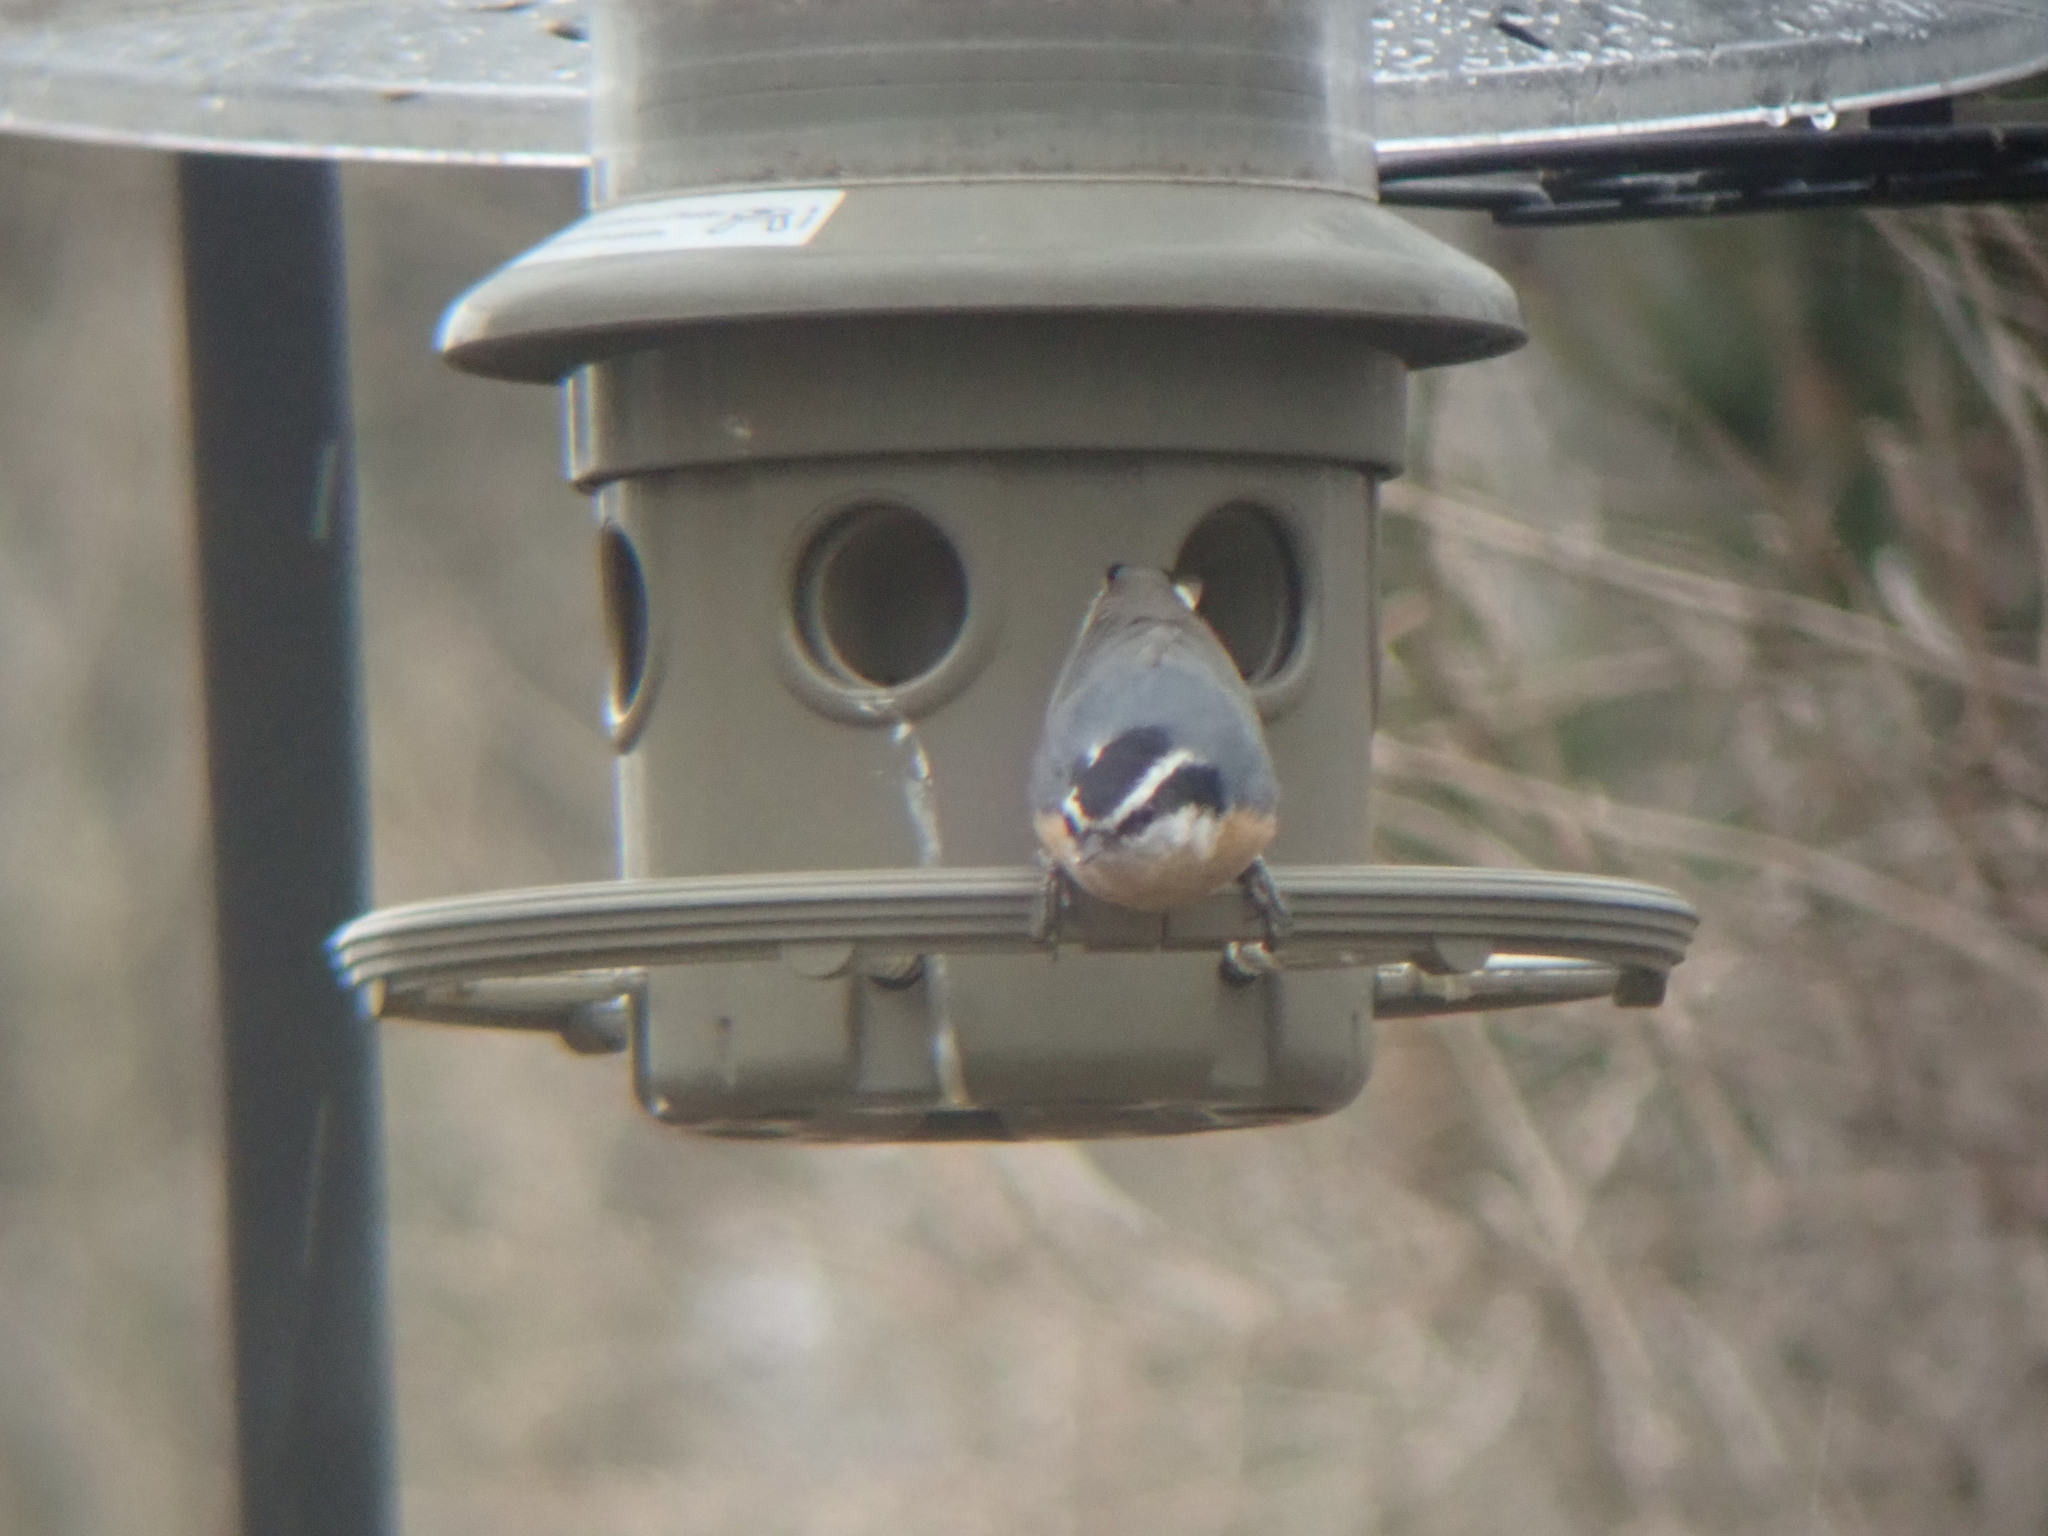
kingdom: Animalia
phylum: Chordata
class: Aves
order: Passeriformes
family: Sittidae
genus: Sitta
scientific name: Sitta canadensis
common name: Red-breasted nuthatch
